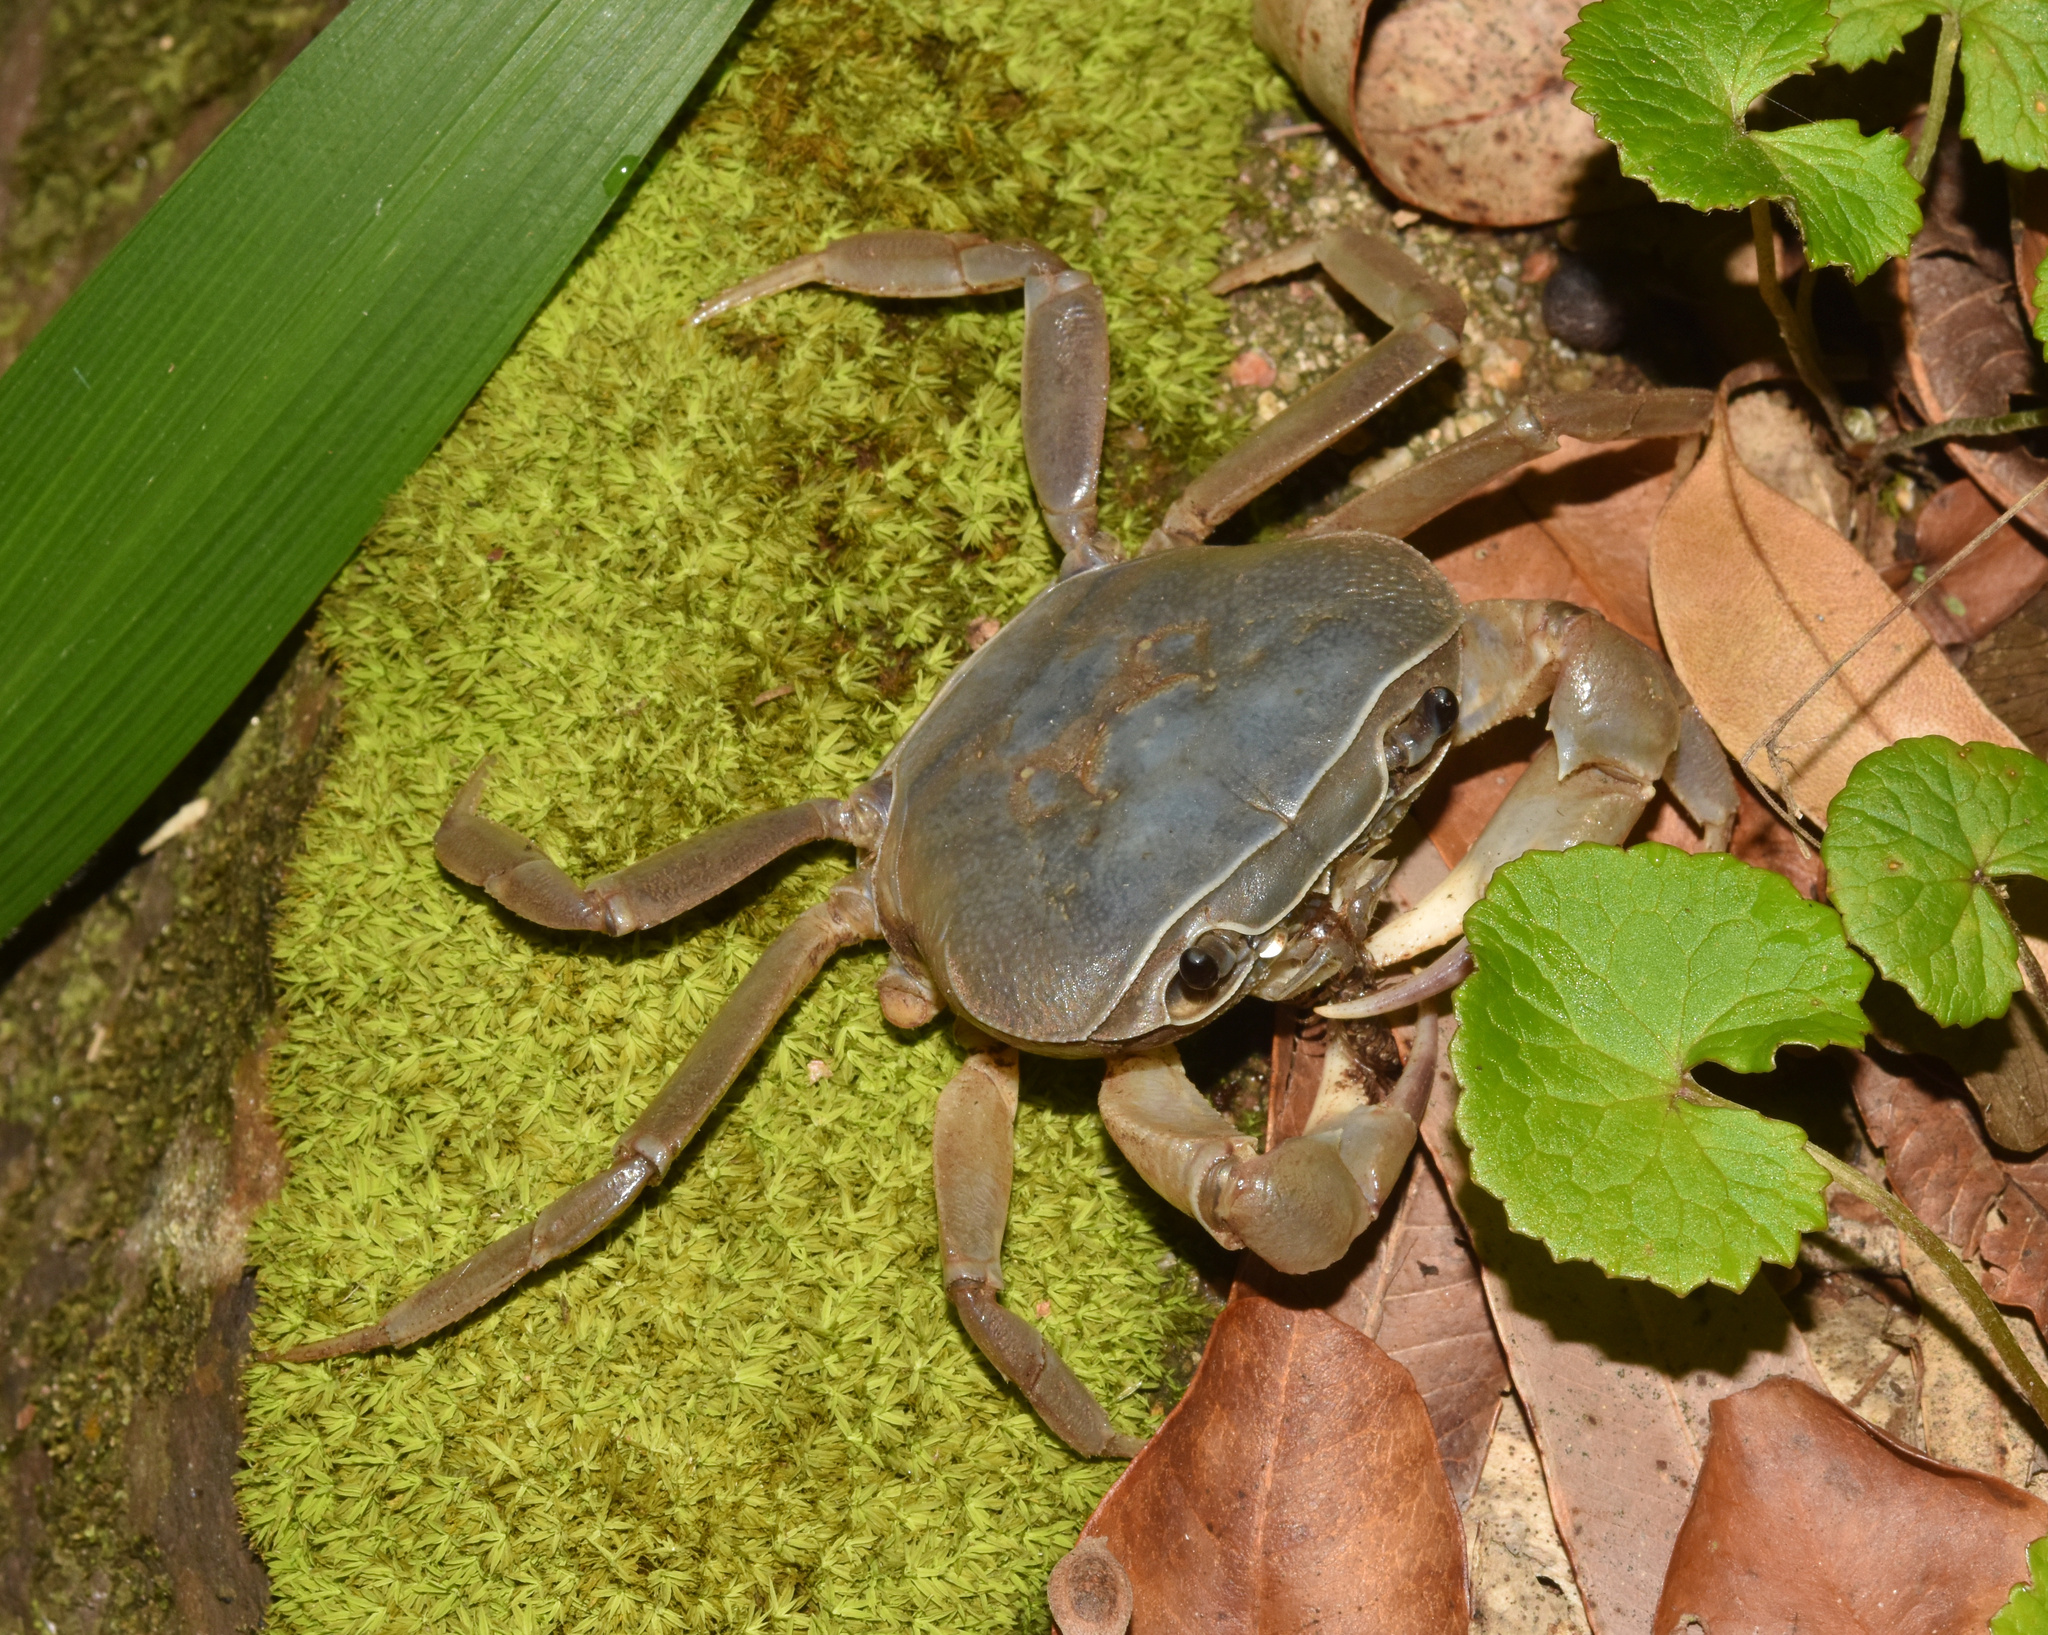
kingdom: Animalia
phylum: Arthropoda
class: Malacostraca
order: Decapoda
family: Potamonautidae
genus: Potamonautes
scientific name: Potamonautes sidneyi
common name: Natal river crab
